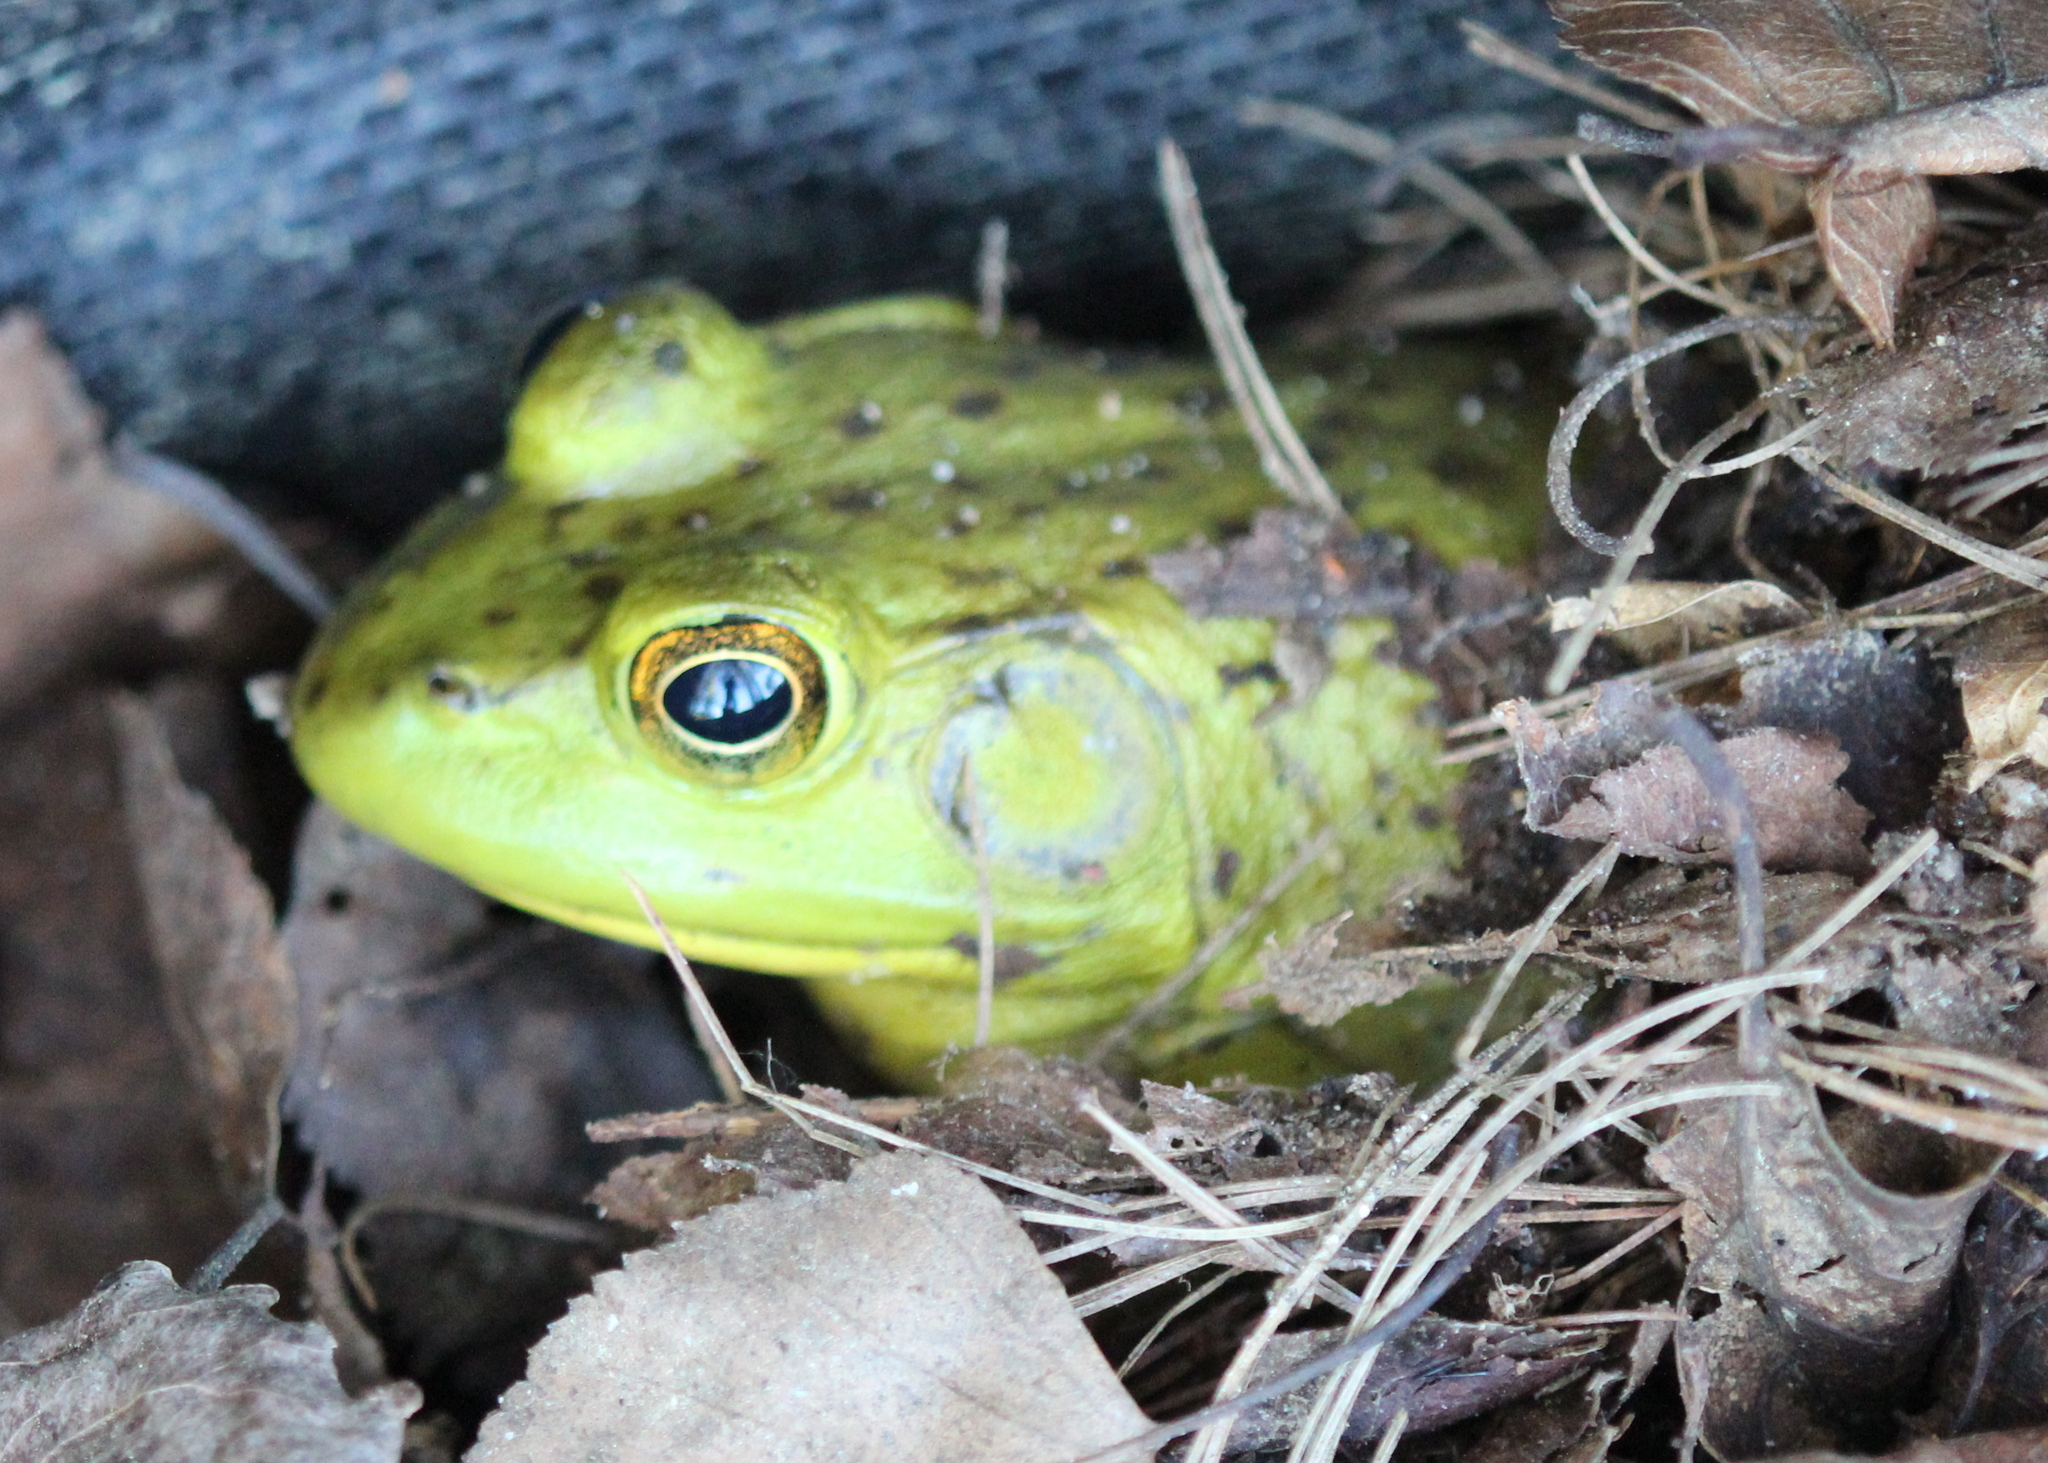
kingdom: Animalia
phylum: Chordata
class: Amphibia
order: Anura
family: Ranidae
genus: Lithobates
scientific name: Lithobates catesbeianus
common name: American bullfrog
